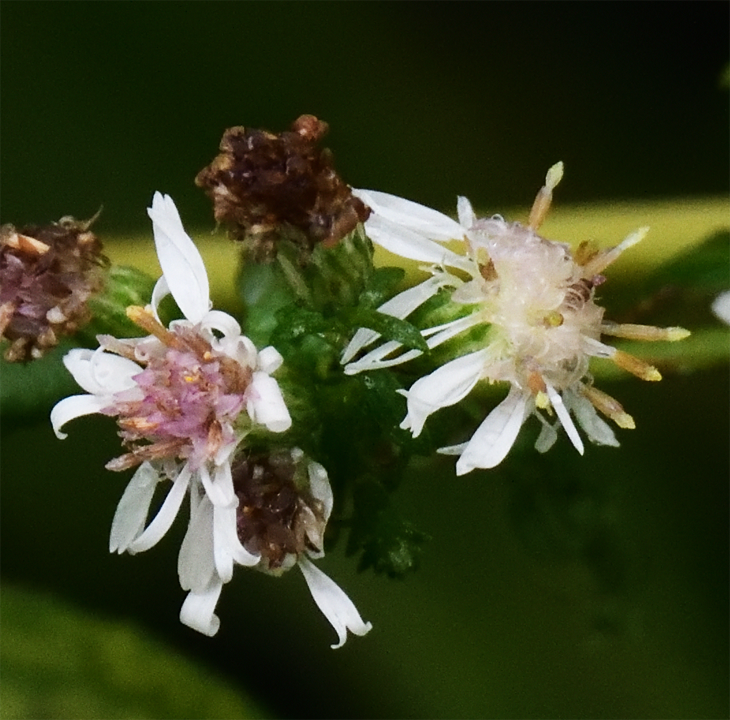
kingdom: Plantae
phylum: Tracheophyta
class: Magnoliopsida
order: Asterales
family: Asteraceae
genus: Symphyotrichum
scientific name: Symphyotrichum lateriflorum
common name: Calico aster
